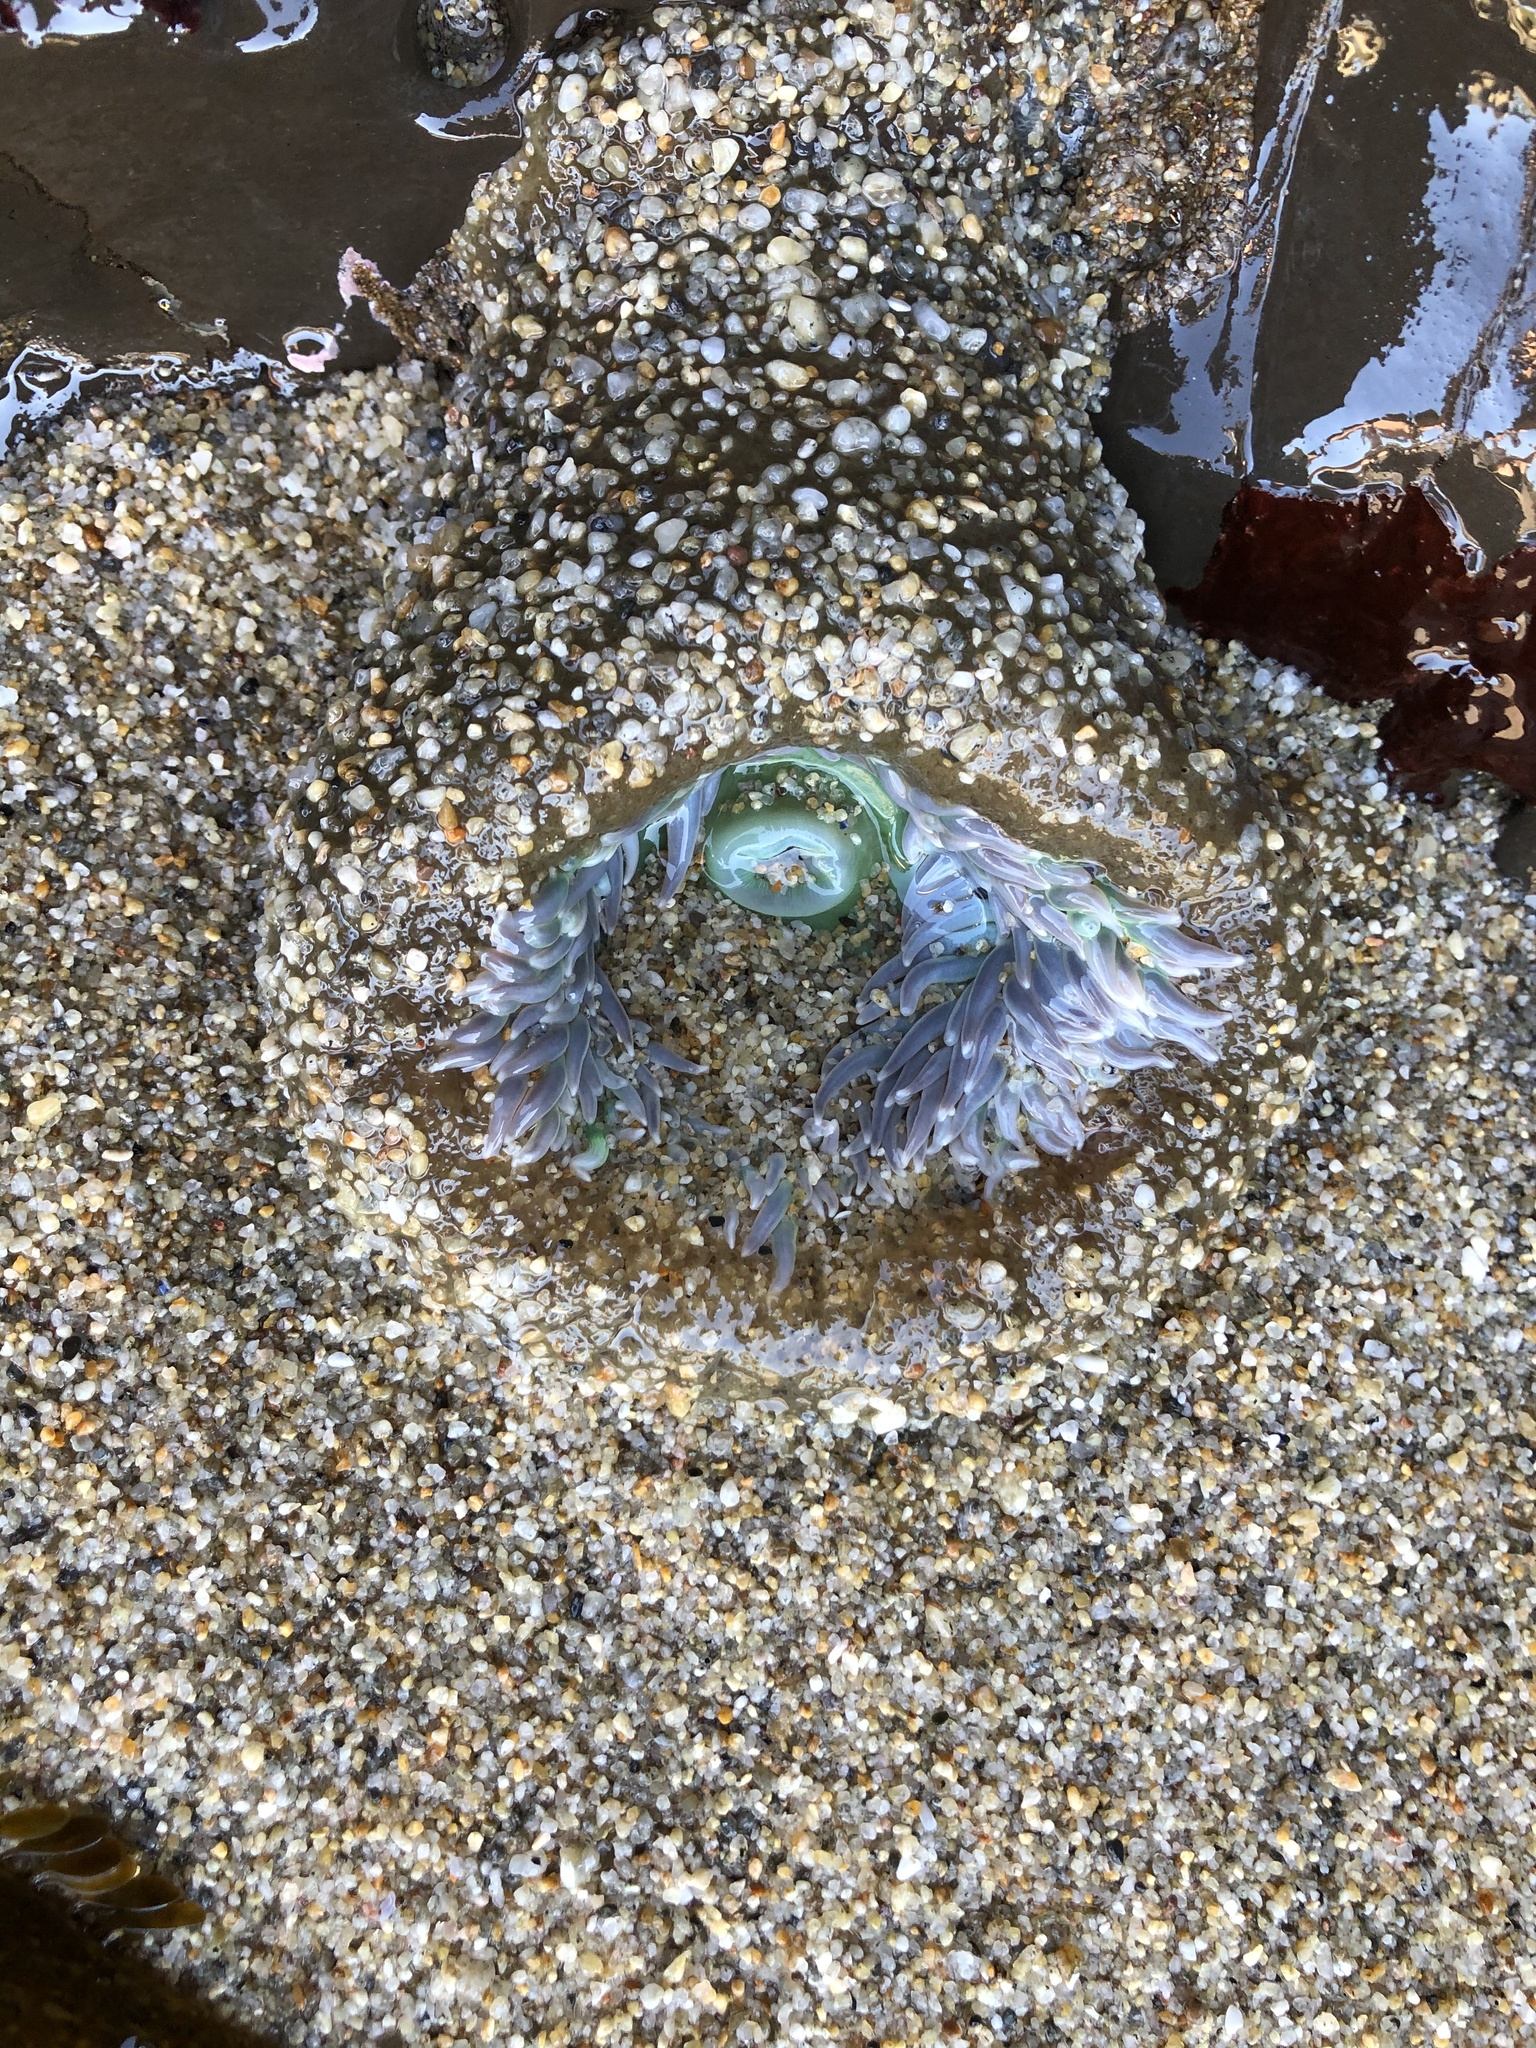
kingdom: Animalia
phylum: Cnidaria
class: Anthozoa
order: Actiniaria
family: Actiniidae
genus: Anthopleura
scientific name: Anthopleura xanthogrammica
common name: Giant green anemone
